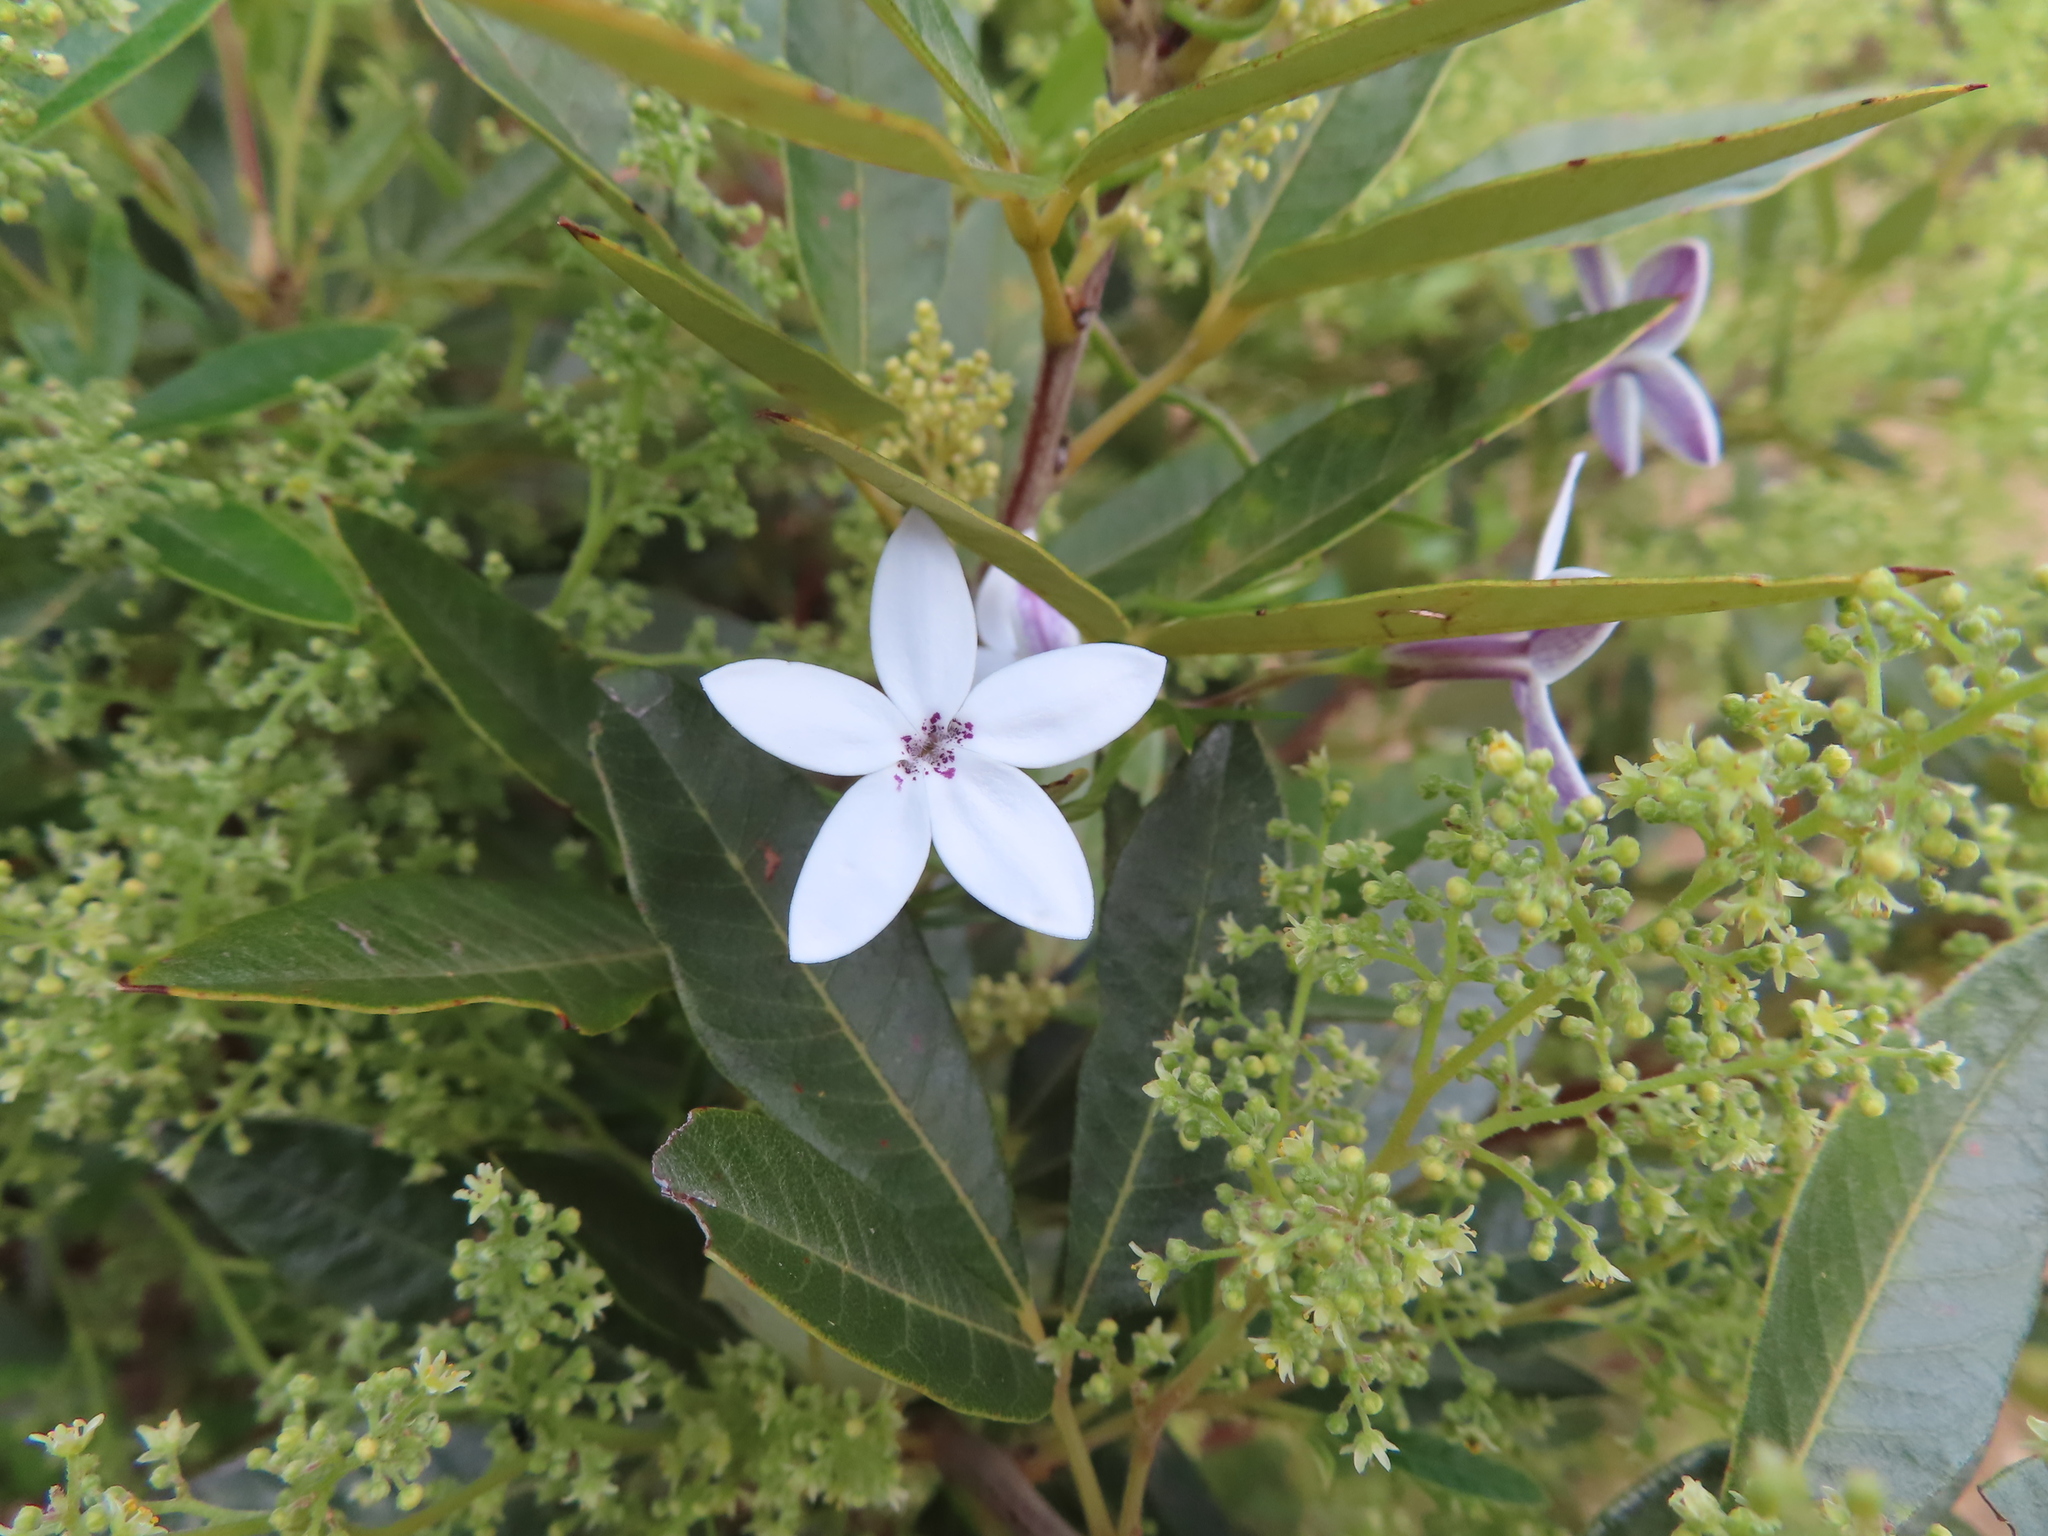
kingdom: Plantae
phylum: Tracheophyta
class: Magnoliopsida
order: Asterales
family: Campanulaceae
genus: Cyphia
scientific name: Cyphia volubilis
